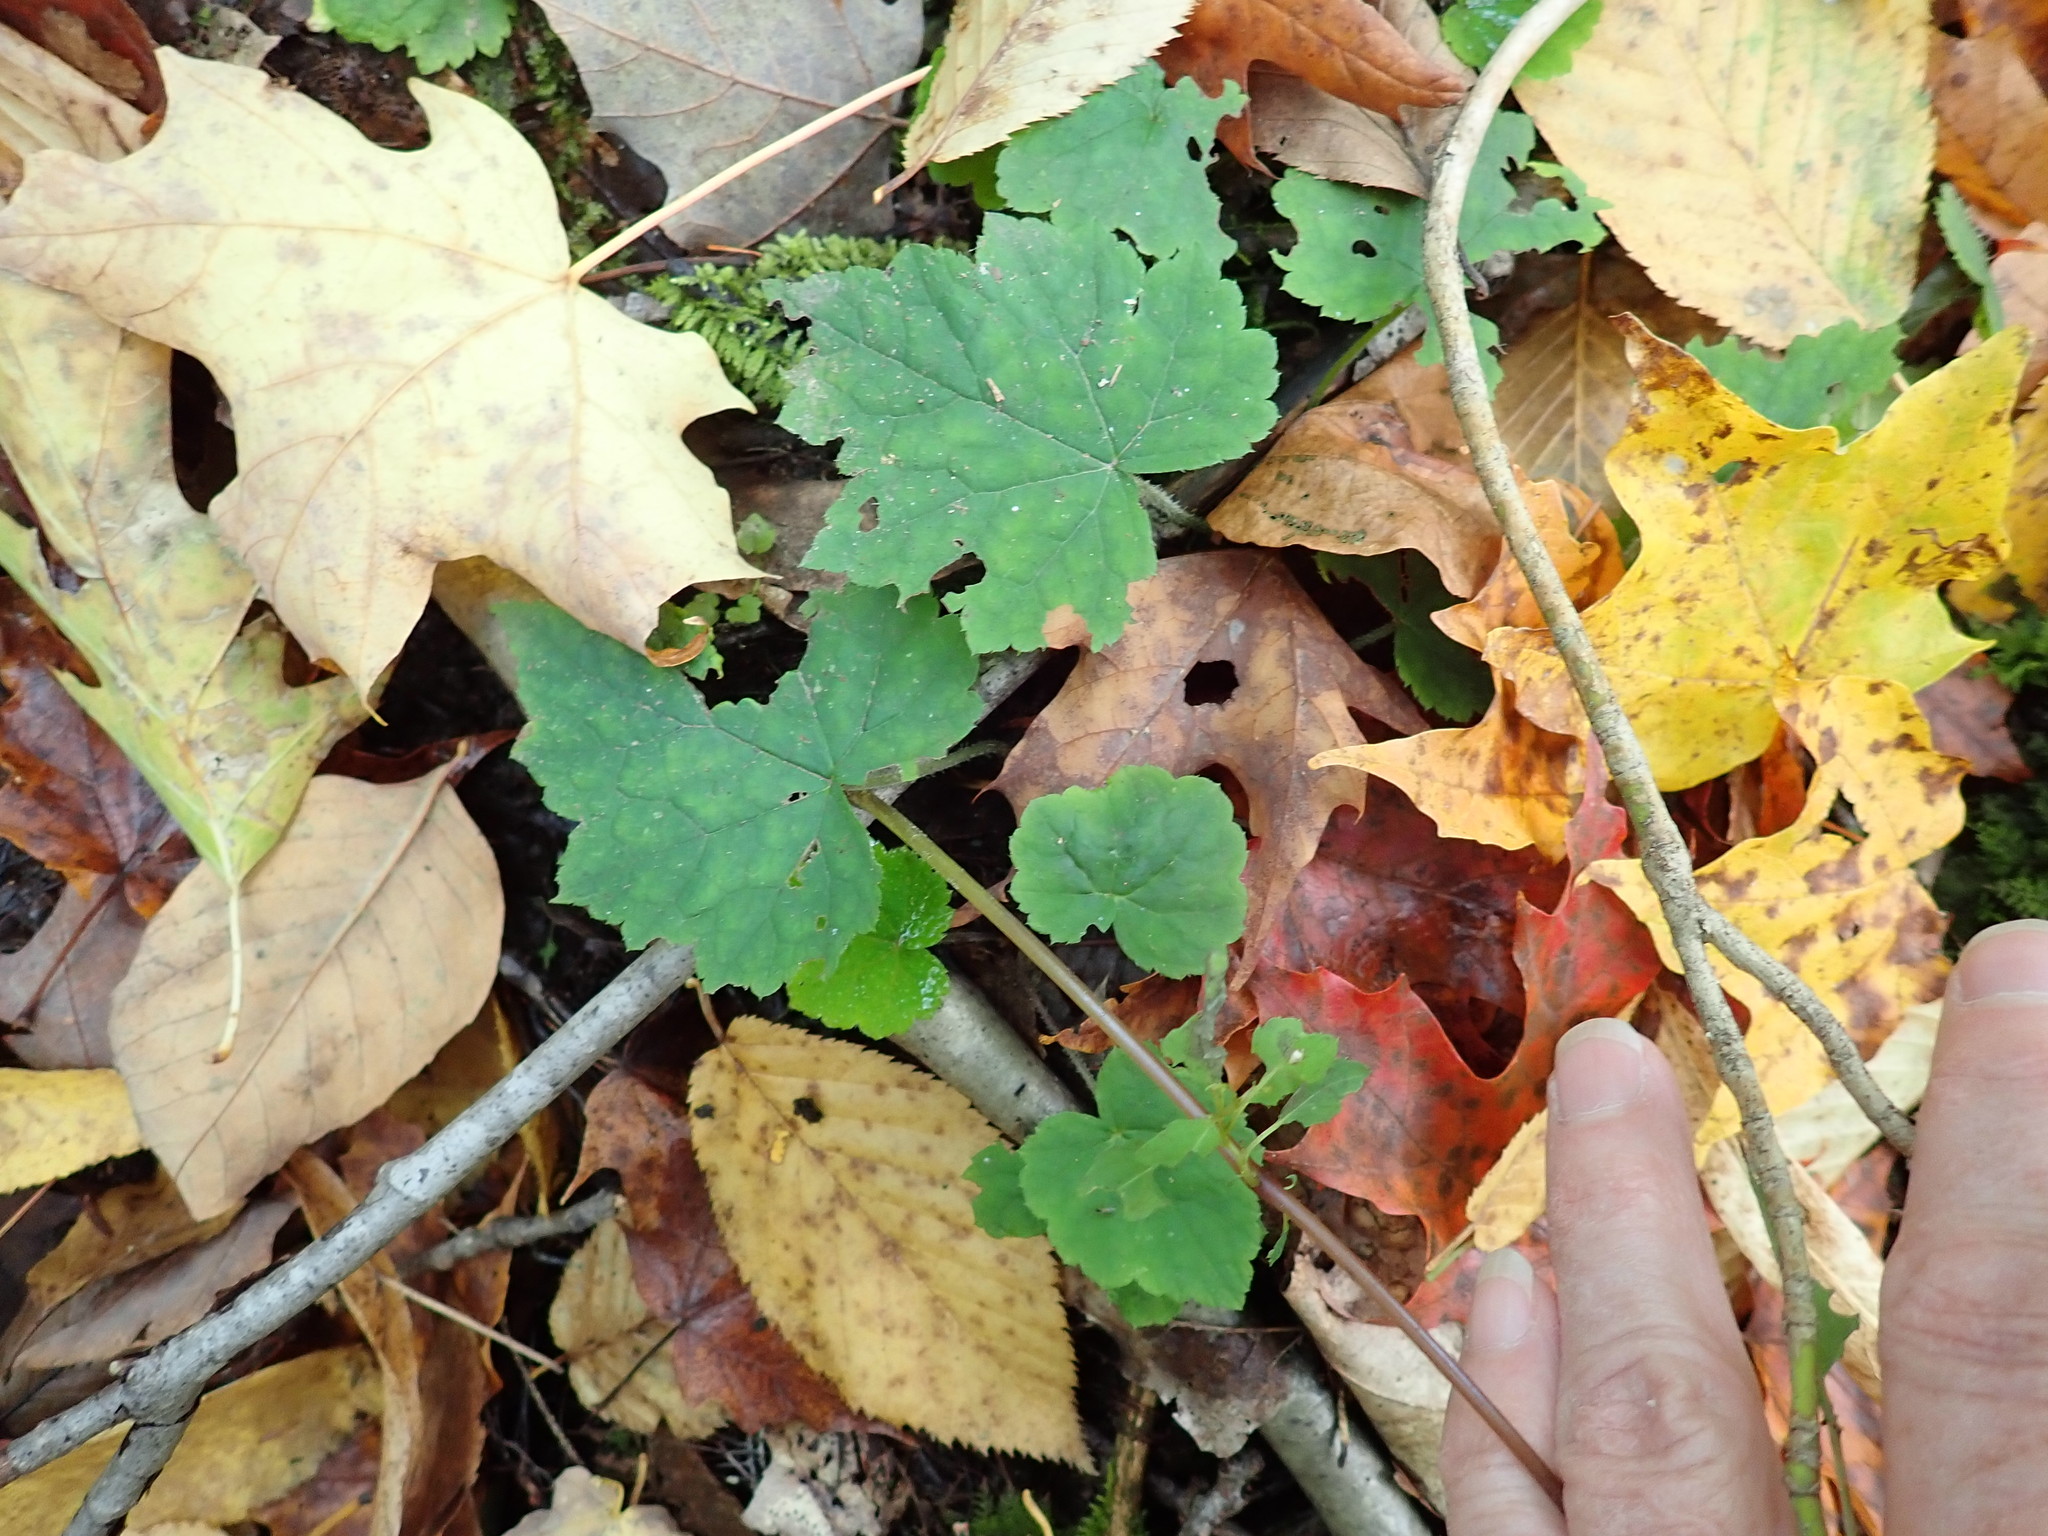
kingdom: Plantae
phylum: Tracheophyta
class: Magnoliopsida
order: Saxifragales
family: Saxifragaceae
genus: Tiarella
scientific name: Tiarella stolonifera
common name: Stoloniferous foamflower
